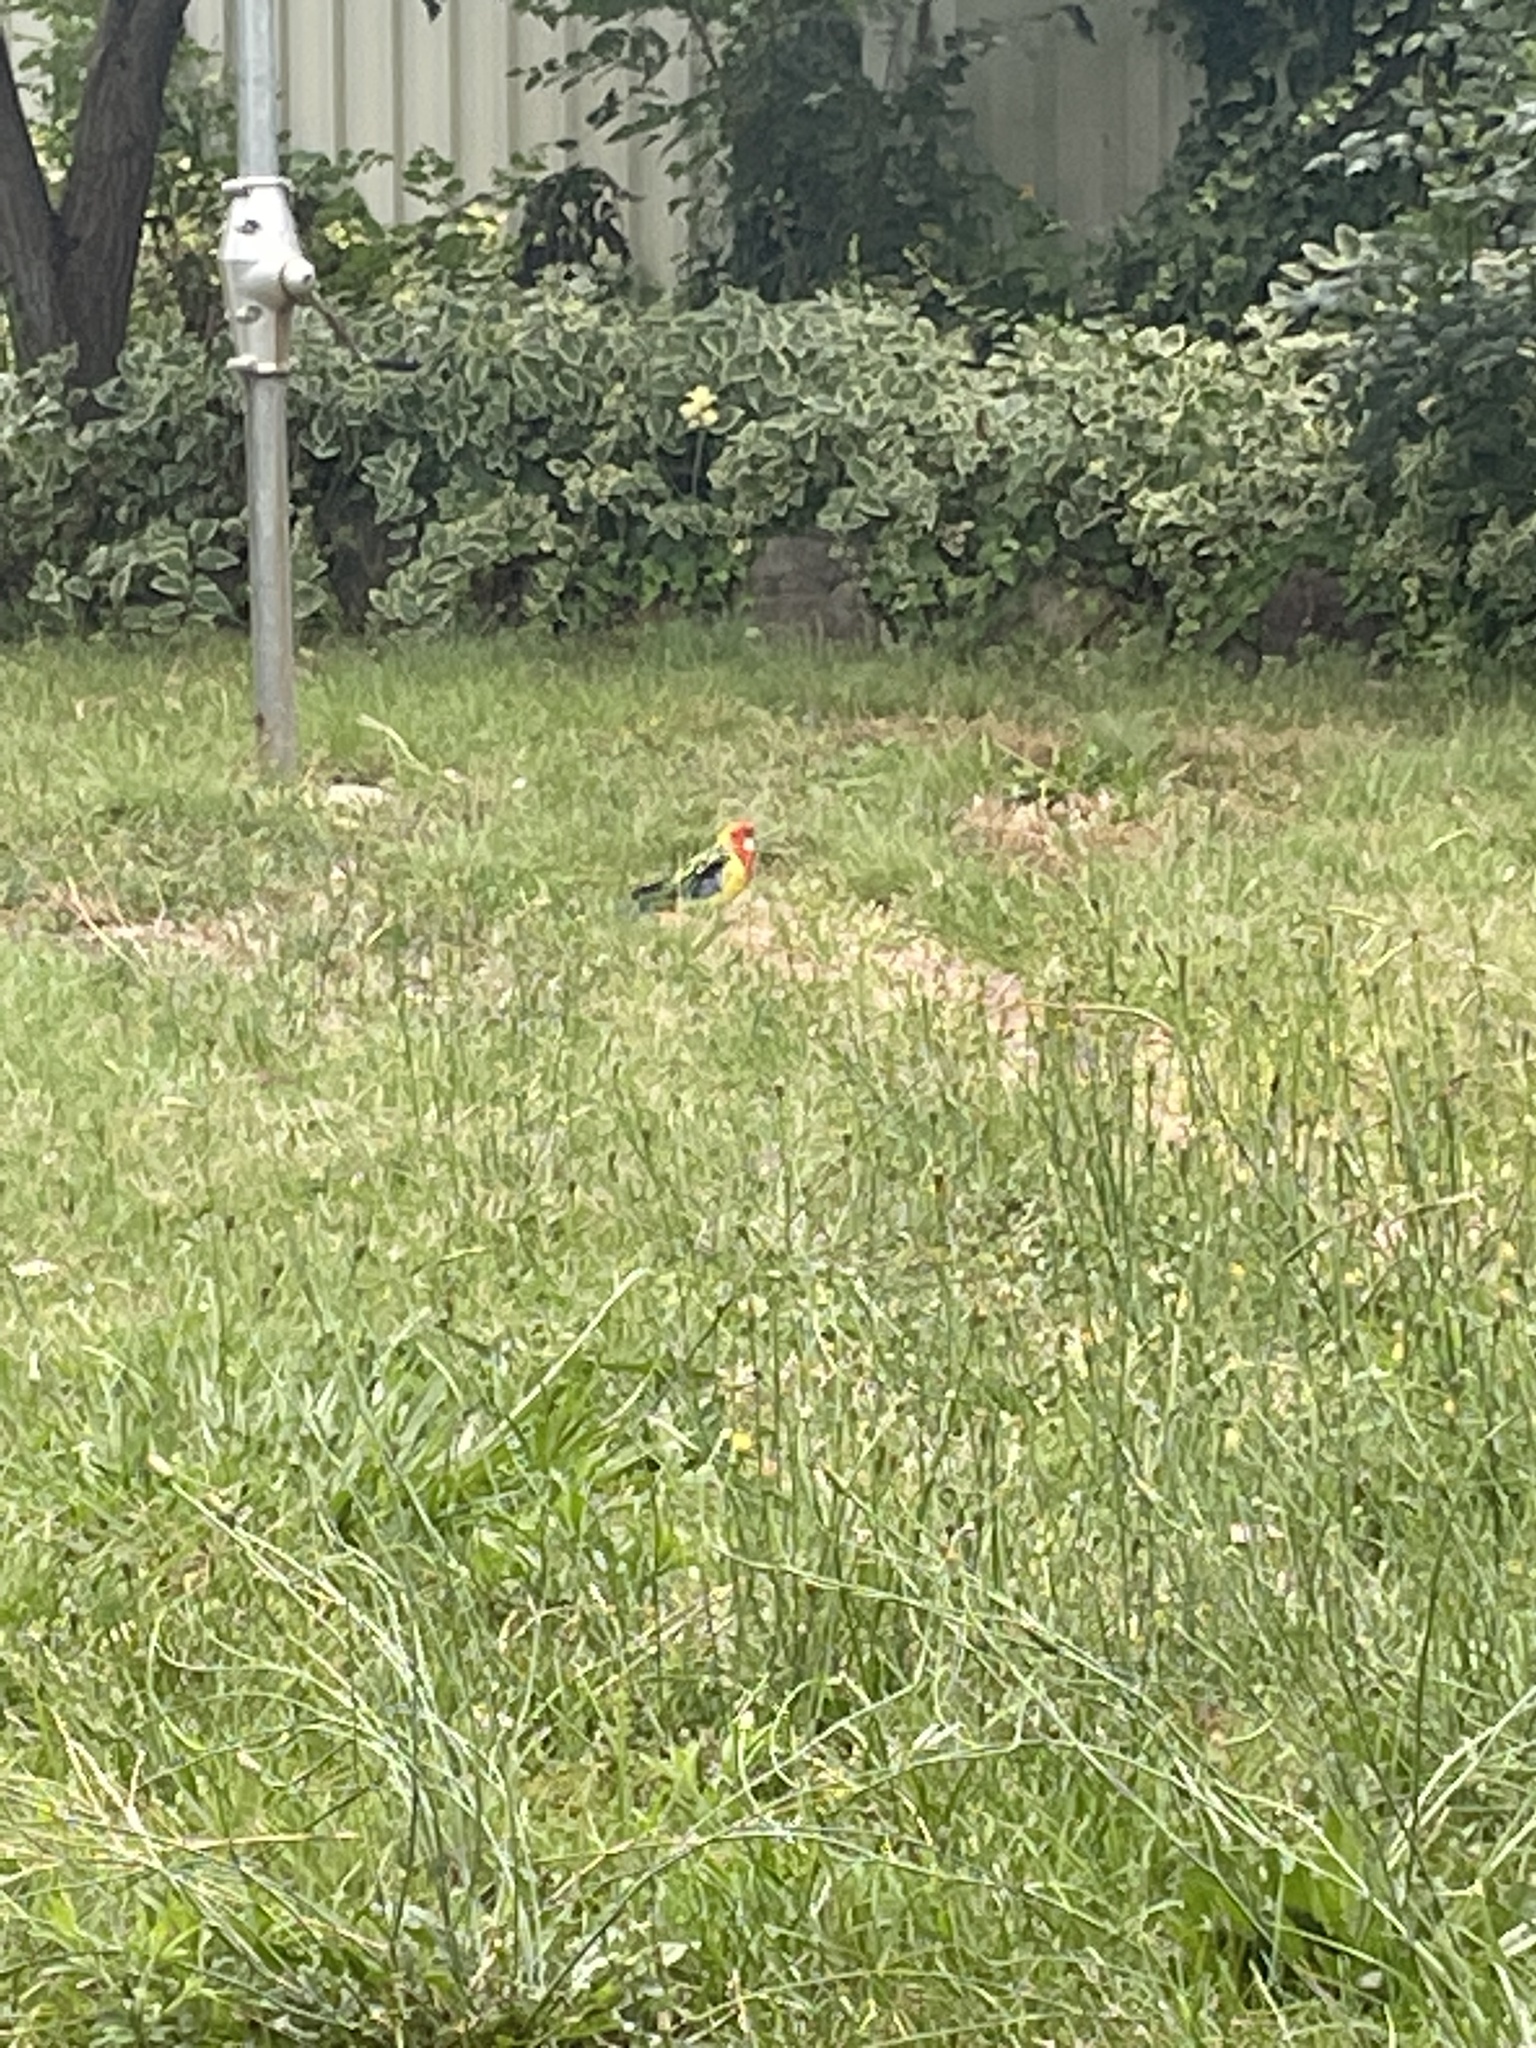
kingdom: Animalia
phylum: Chordata
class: Aves
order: Psittaciformes
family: Psittacidae
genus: Platycercus
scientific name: Platycercus eximius
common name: Eastern rosella
